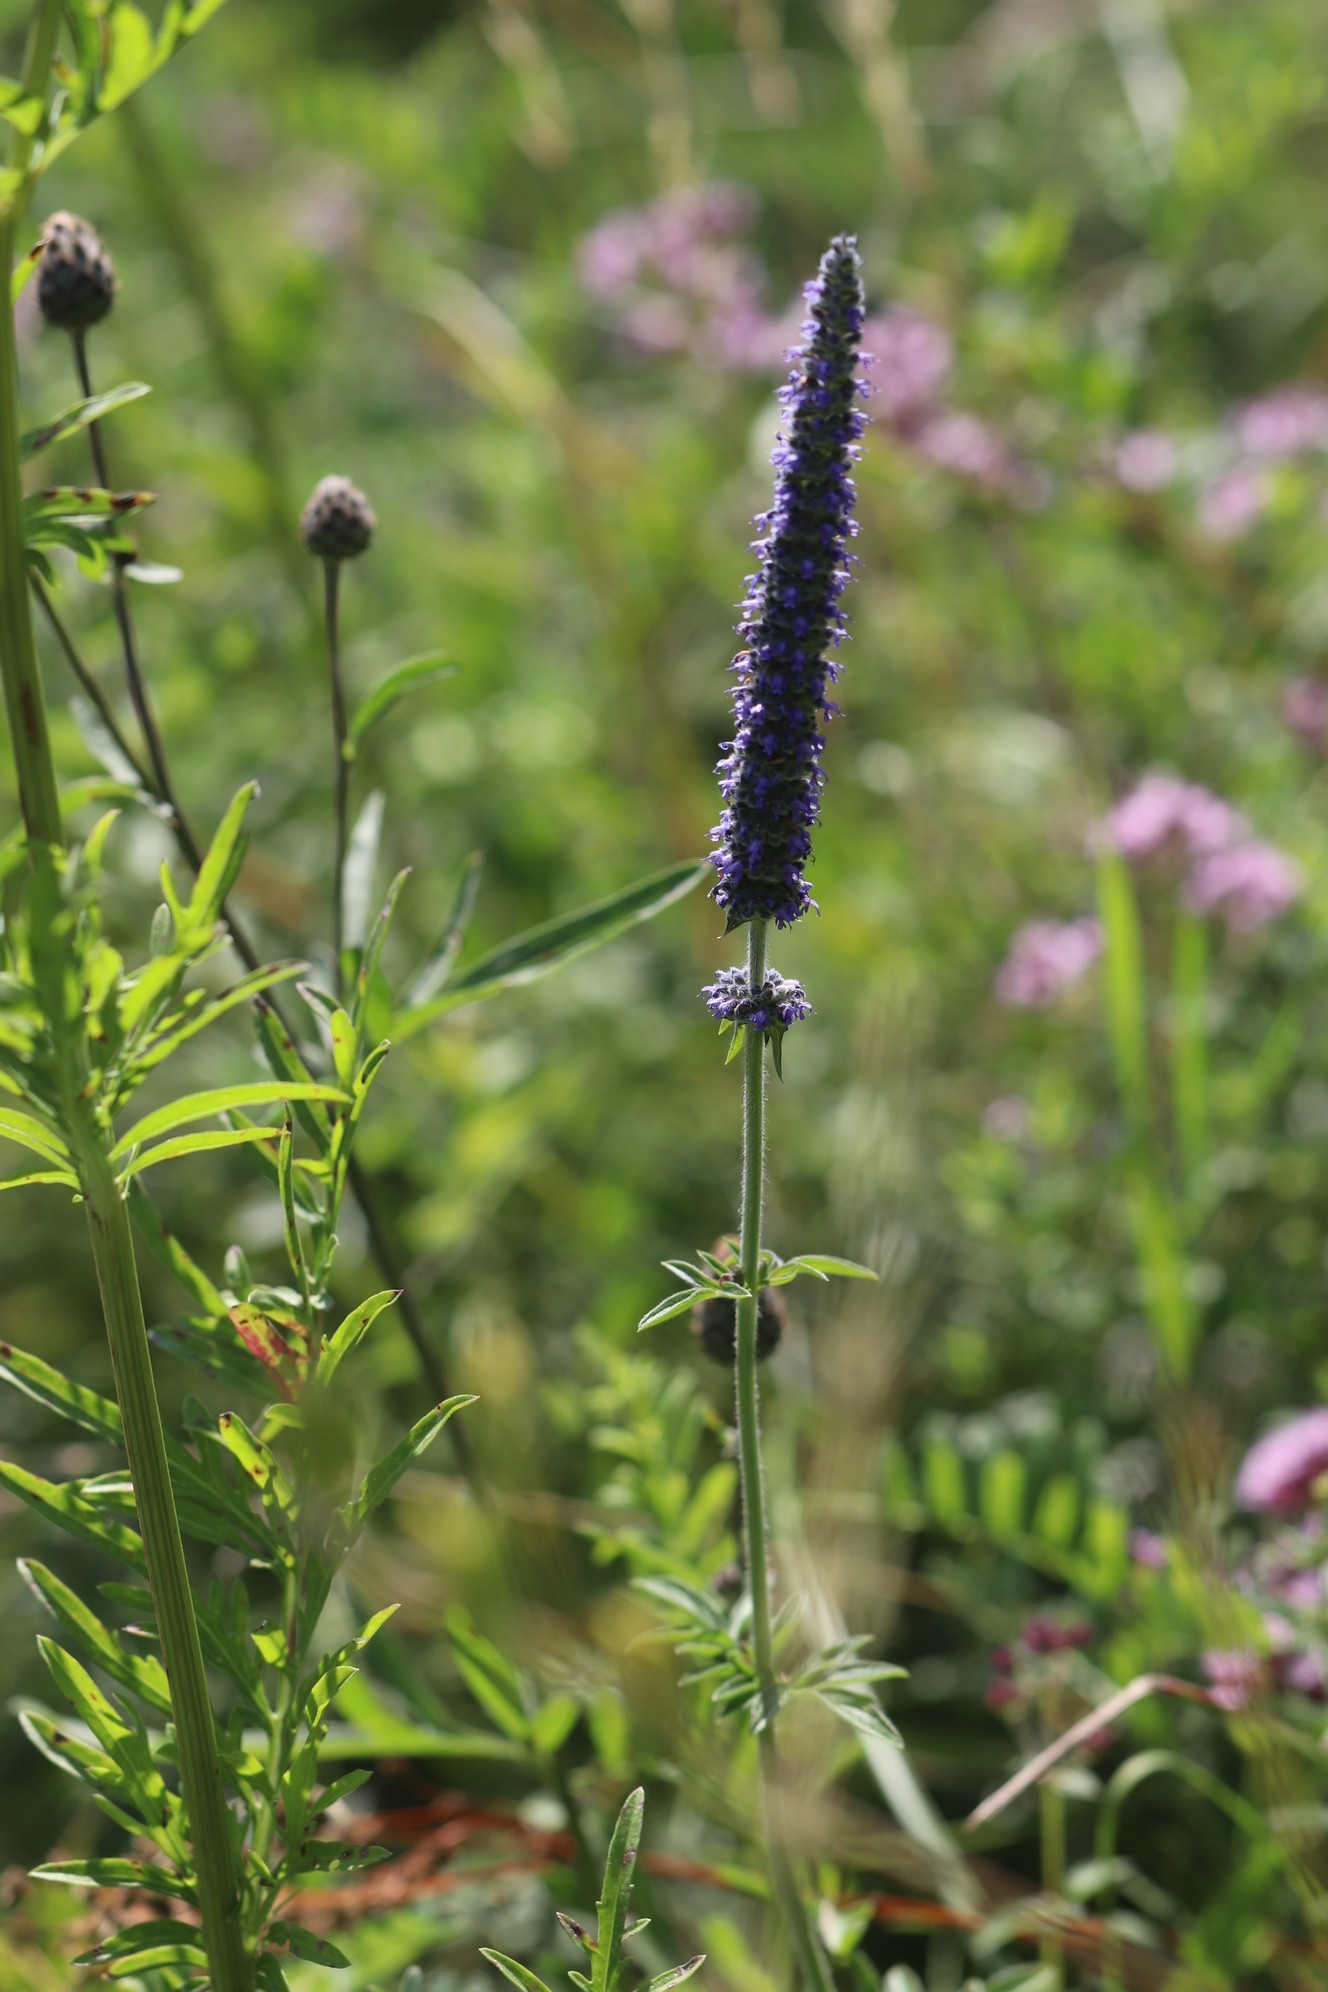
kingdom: Plantae
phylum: Tracheophyta
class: Magnoliopsida
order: Lamiales
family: Lamiaceae
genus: Nepeta
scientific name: Nepeta multifida
